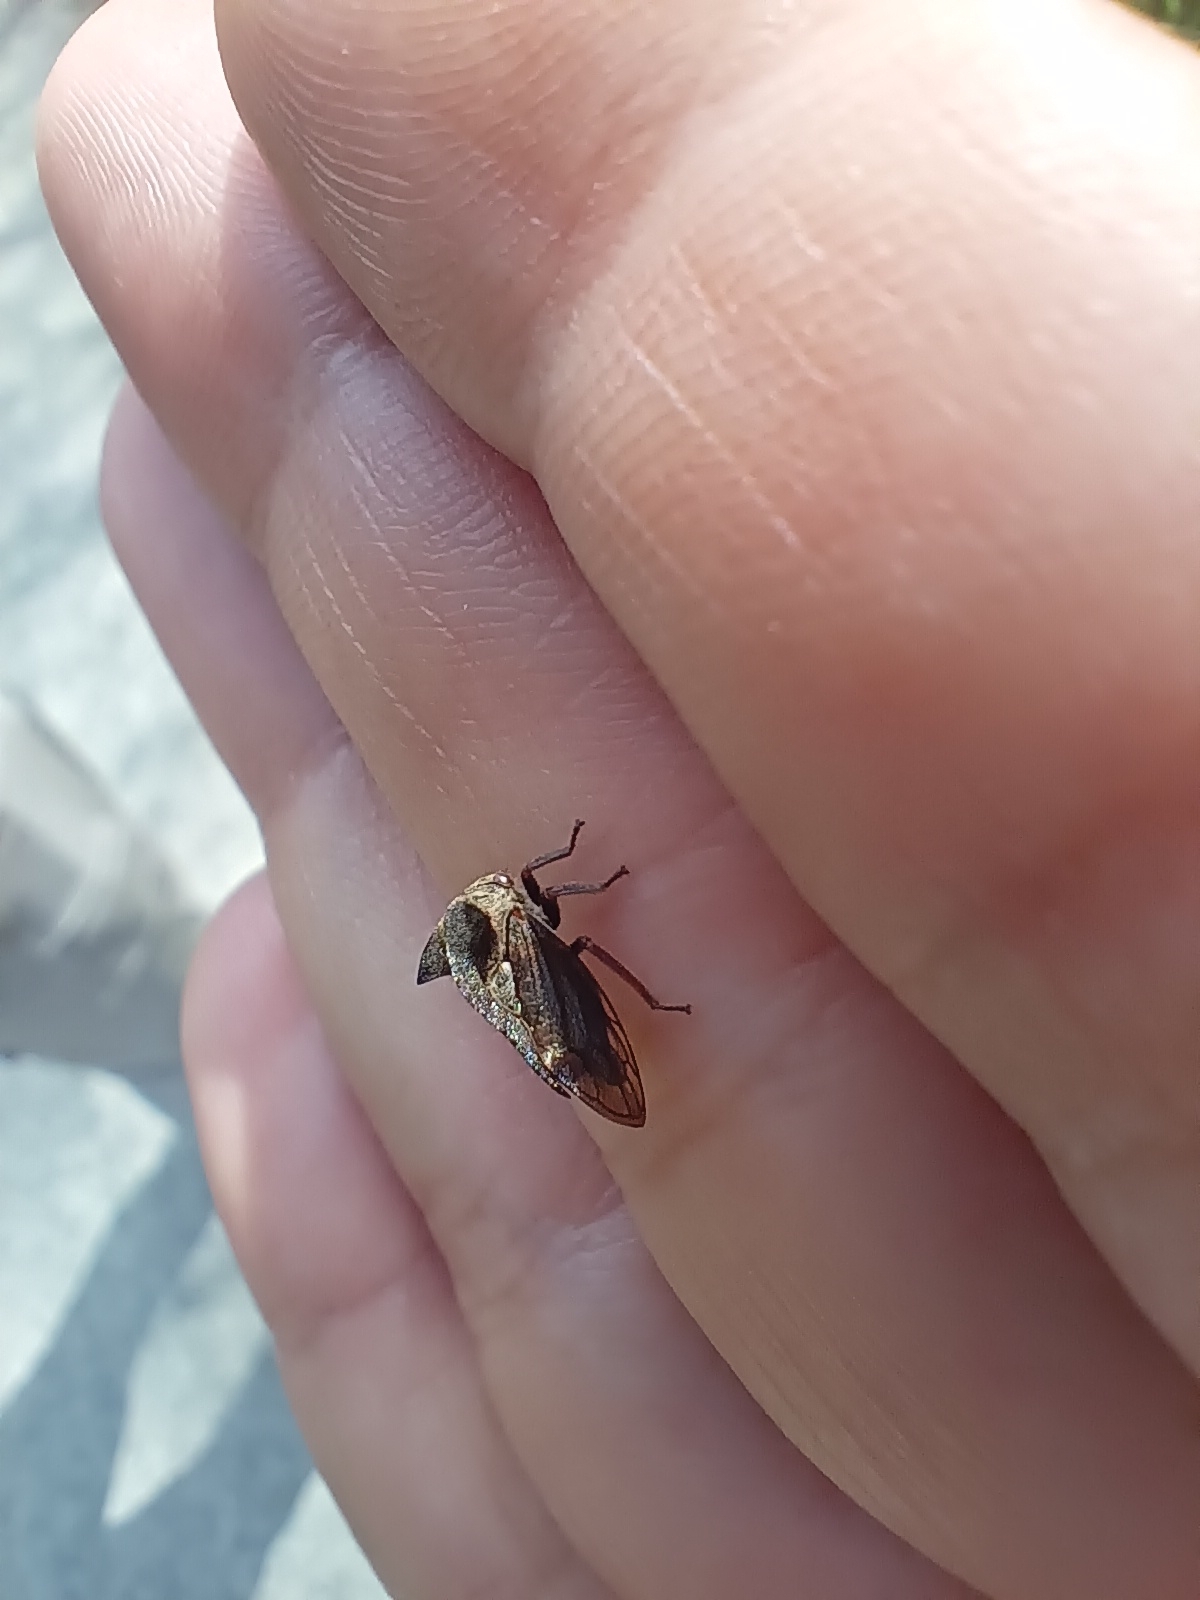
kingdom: Animalia
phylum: Arthropoda
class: Insecta
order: Hemiptera
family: Membracidae
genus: Centrotus
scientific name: Centrotus cornuta
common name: Treehopper
